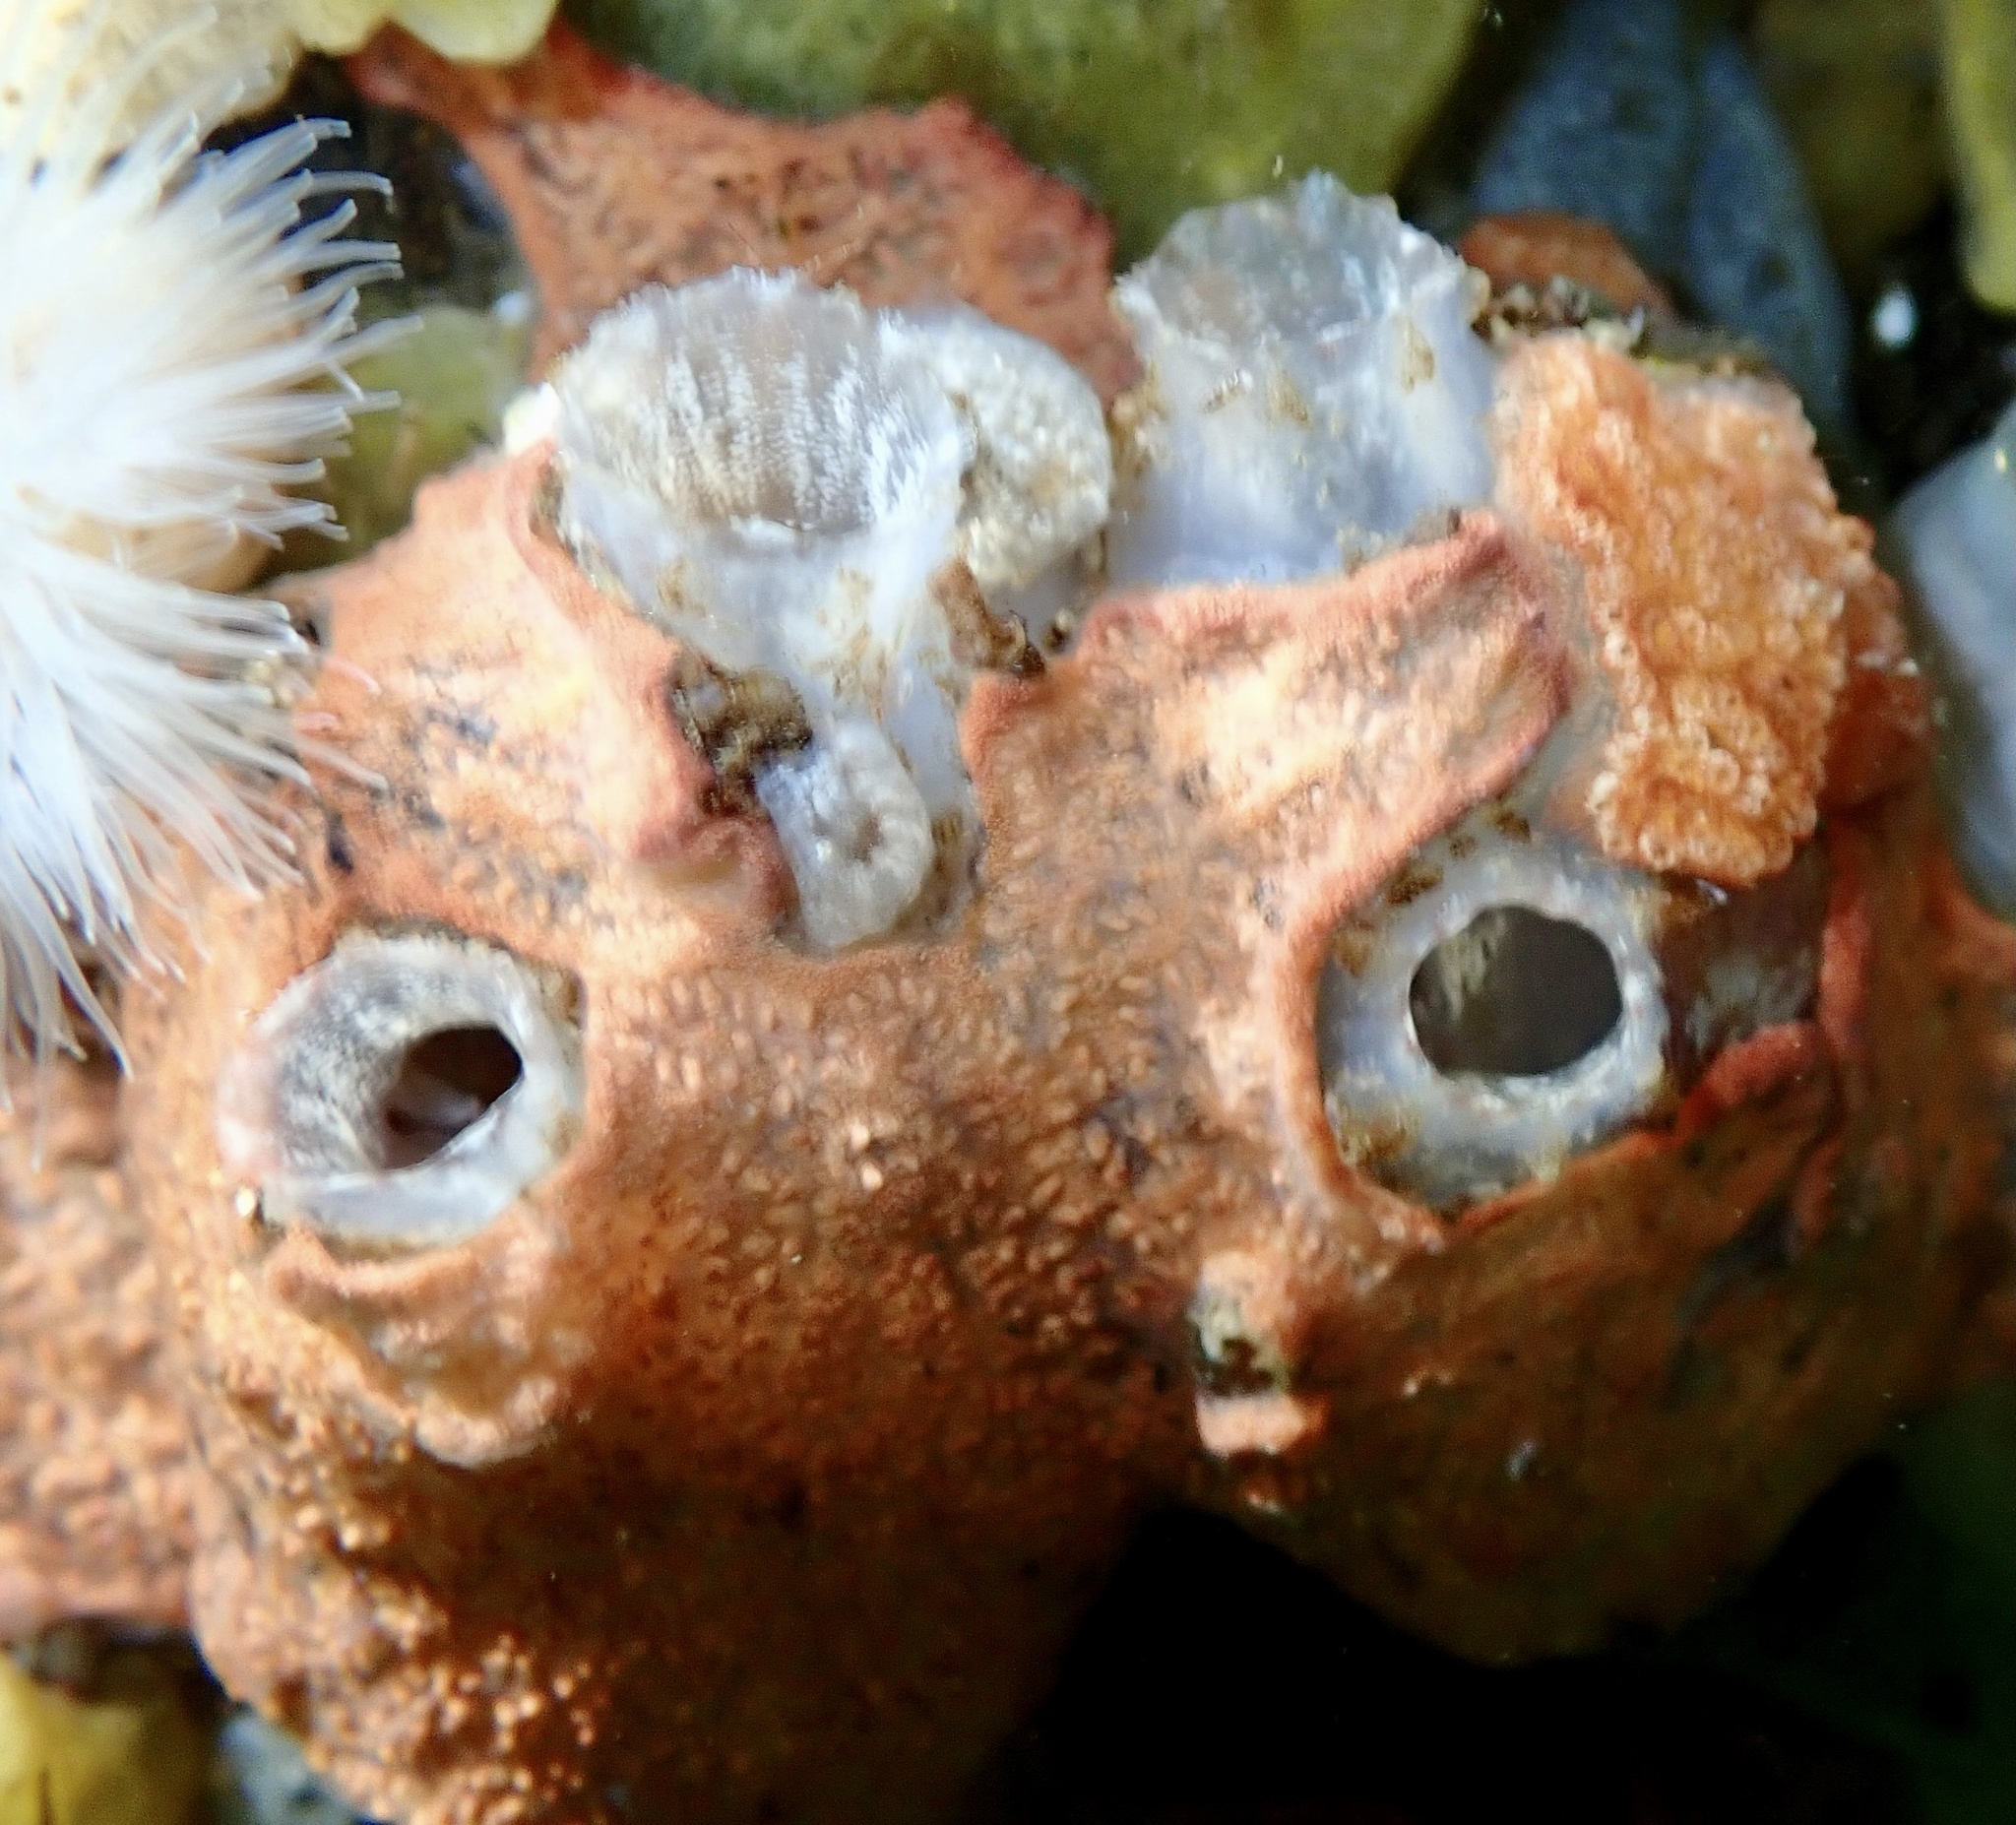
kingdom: Animalia
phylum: Chordata
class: Ascidiacea
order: Phlebobranchia
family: Ascidiidae
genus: Ascidiella
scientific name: Ascidiella aspersa
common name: Dirty sea-squirt
